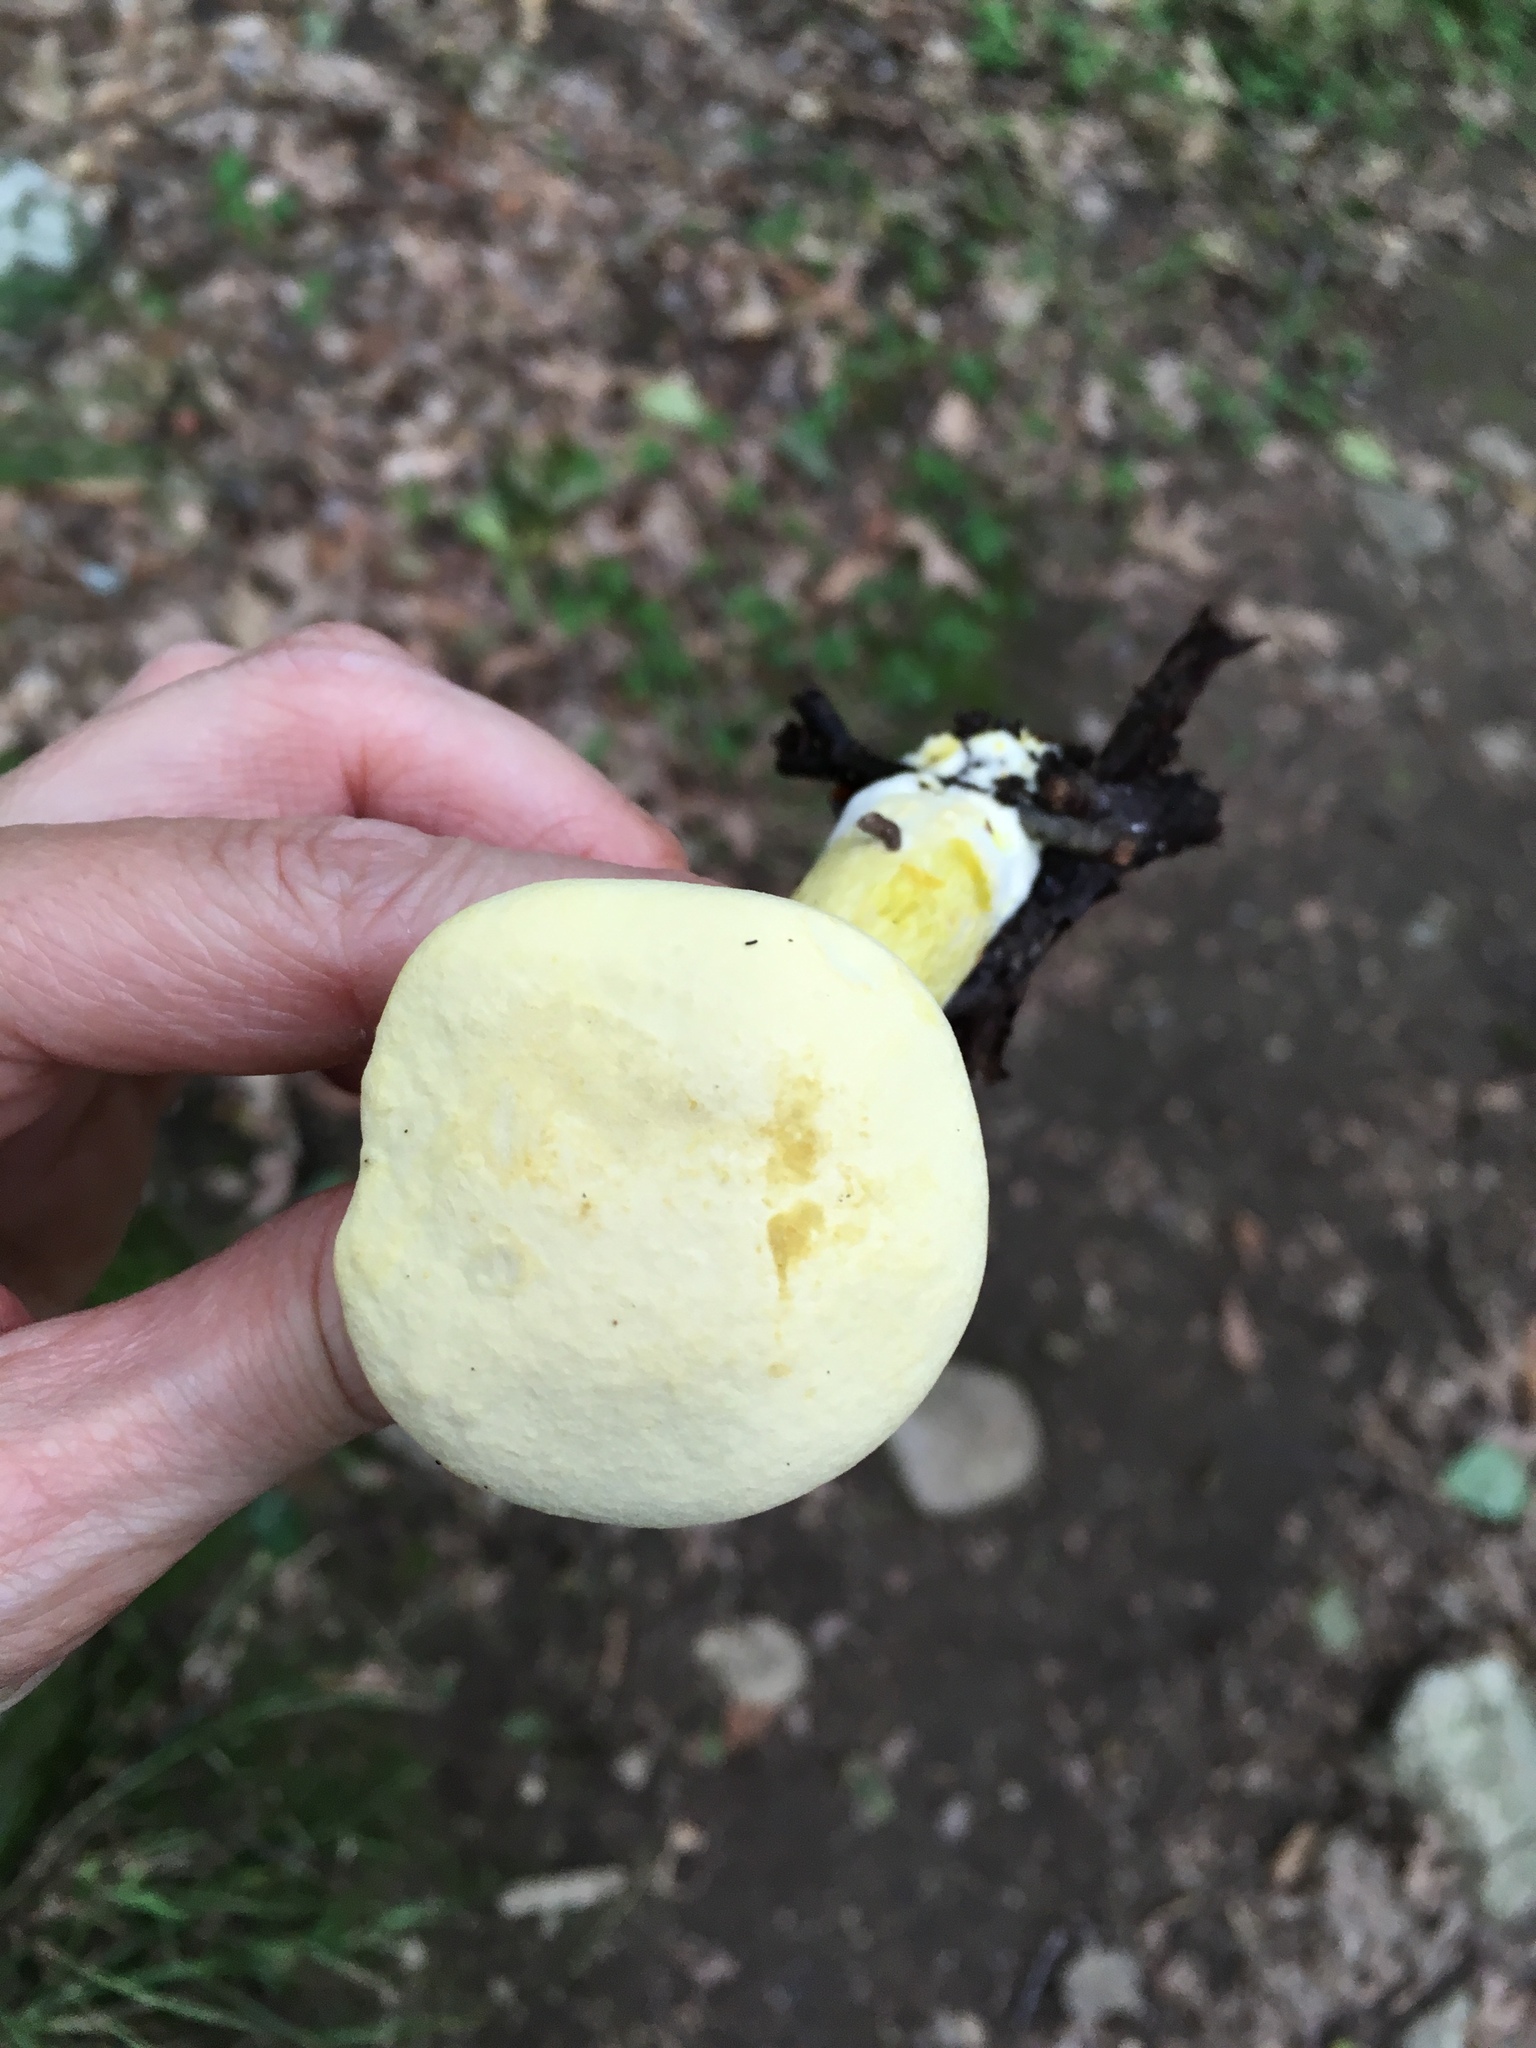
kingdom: Fungi
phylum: Basidiomycota
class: Agaricomycetes
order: Boletales
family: Boletaceae
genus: Retiboletus
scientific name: Retiboletus ornatipes
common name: Ornate-stalked bolete
